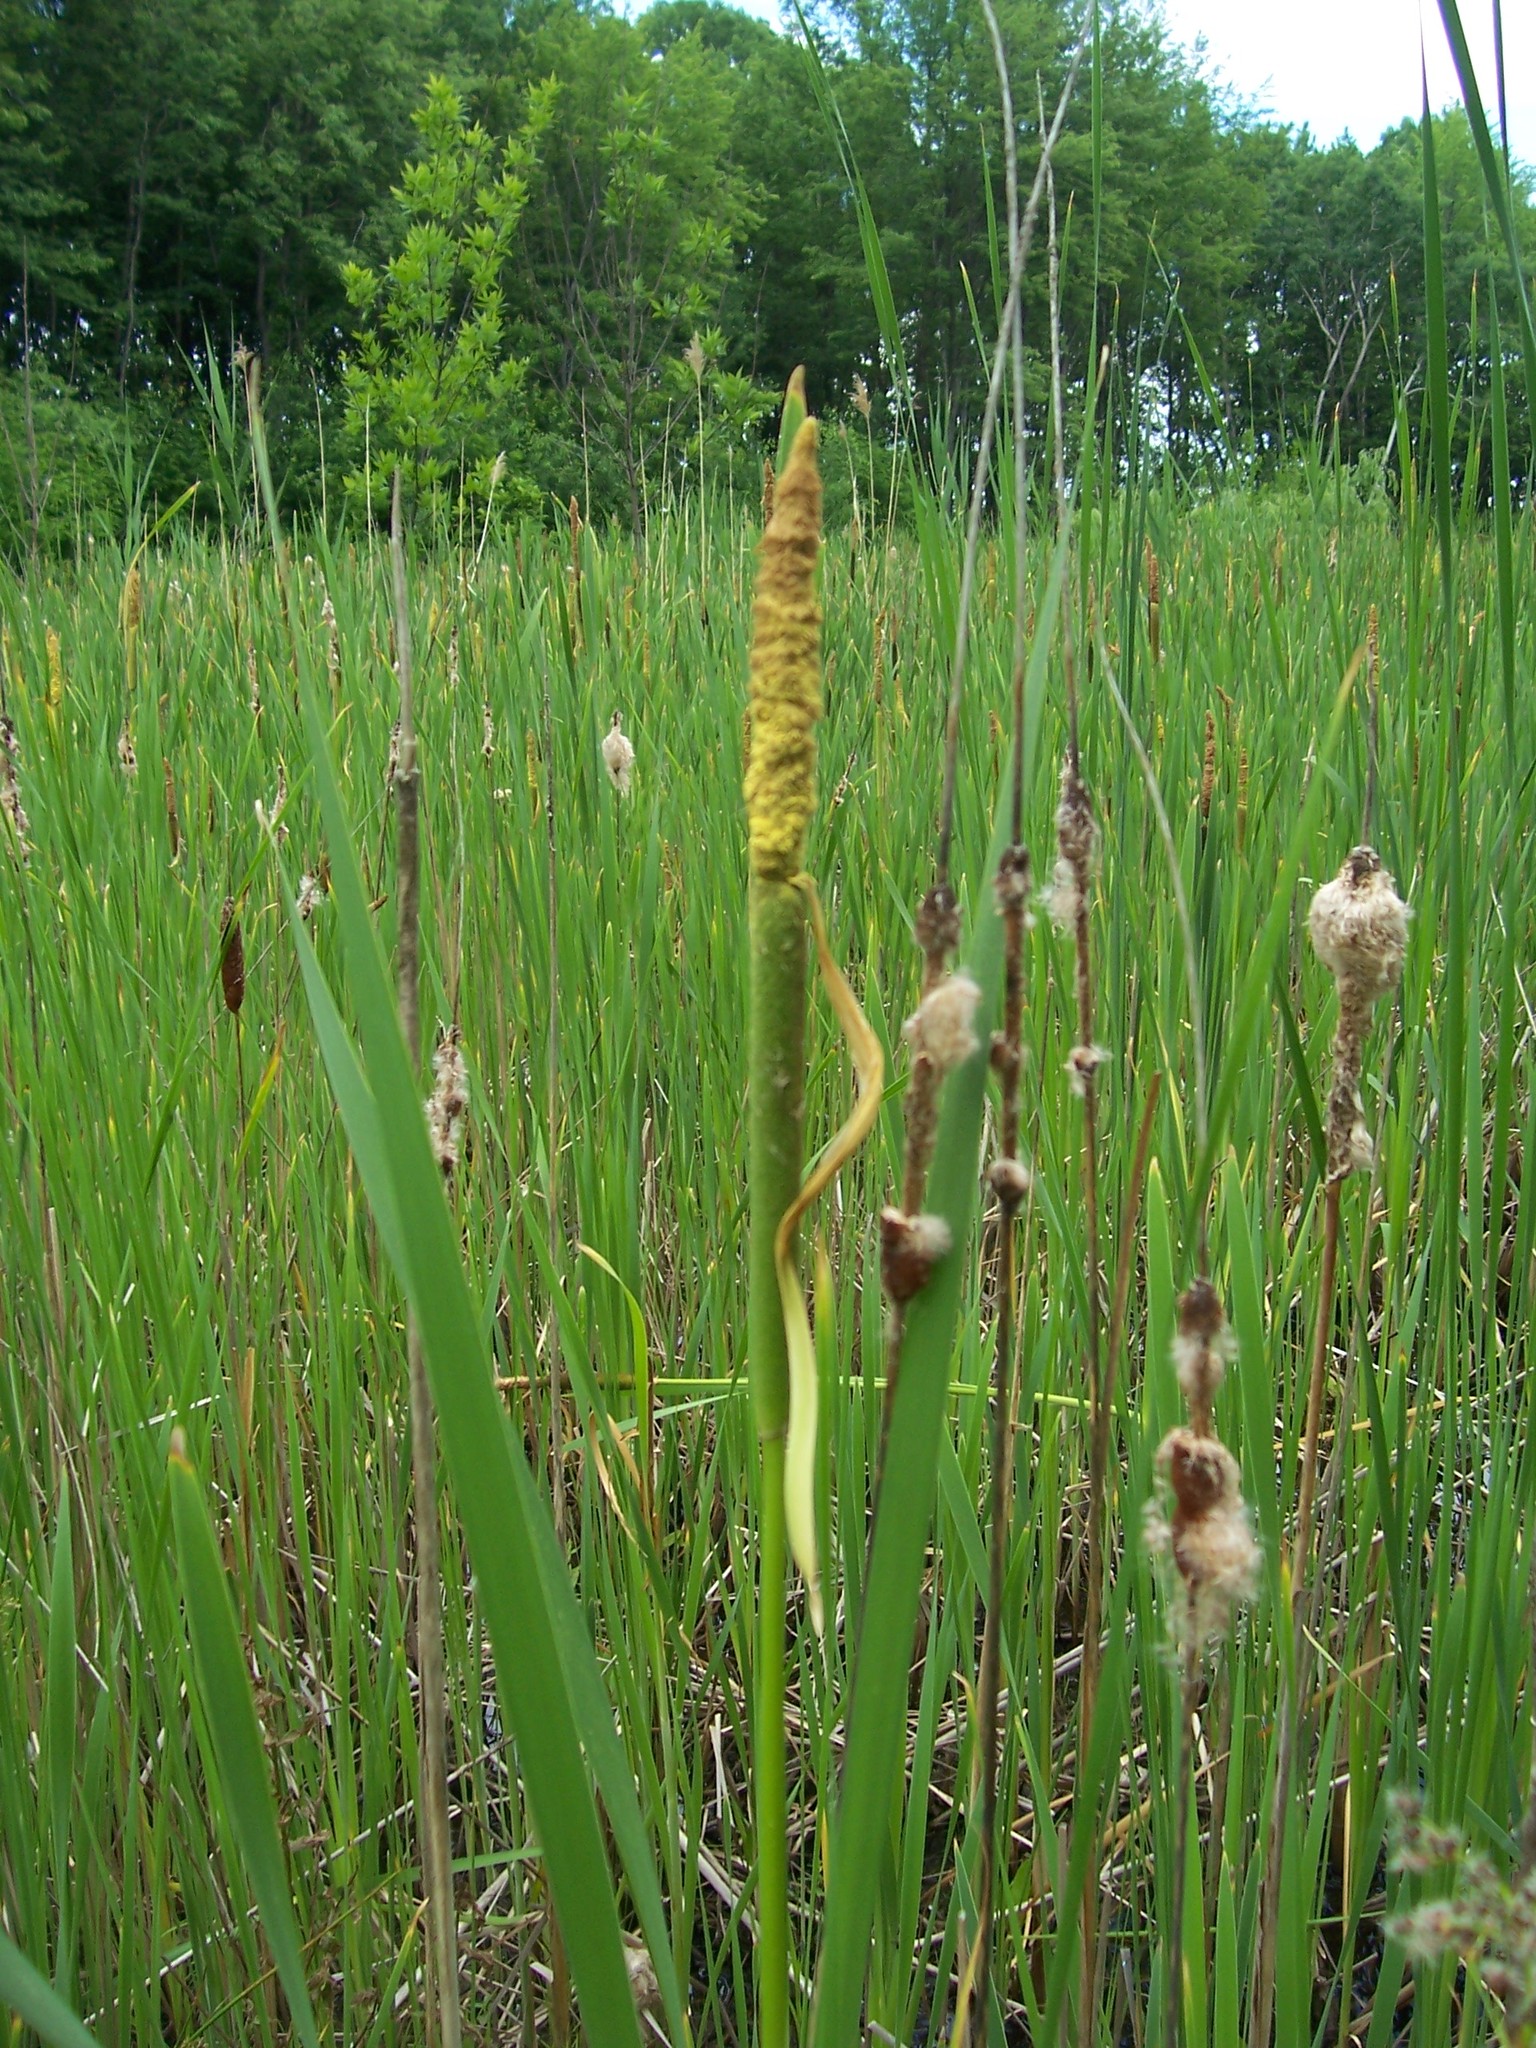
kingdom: Plantae
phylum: Tracheophyta
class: Liliopsida
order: Poales
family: Typhaceae
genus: Typha
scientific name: Typha latifolia
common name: Broadleaf cattail
